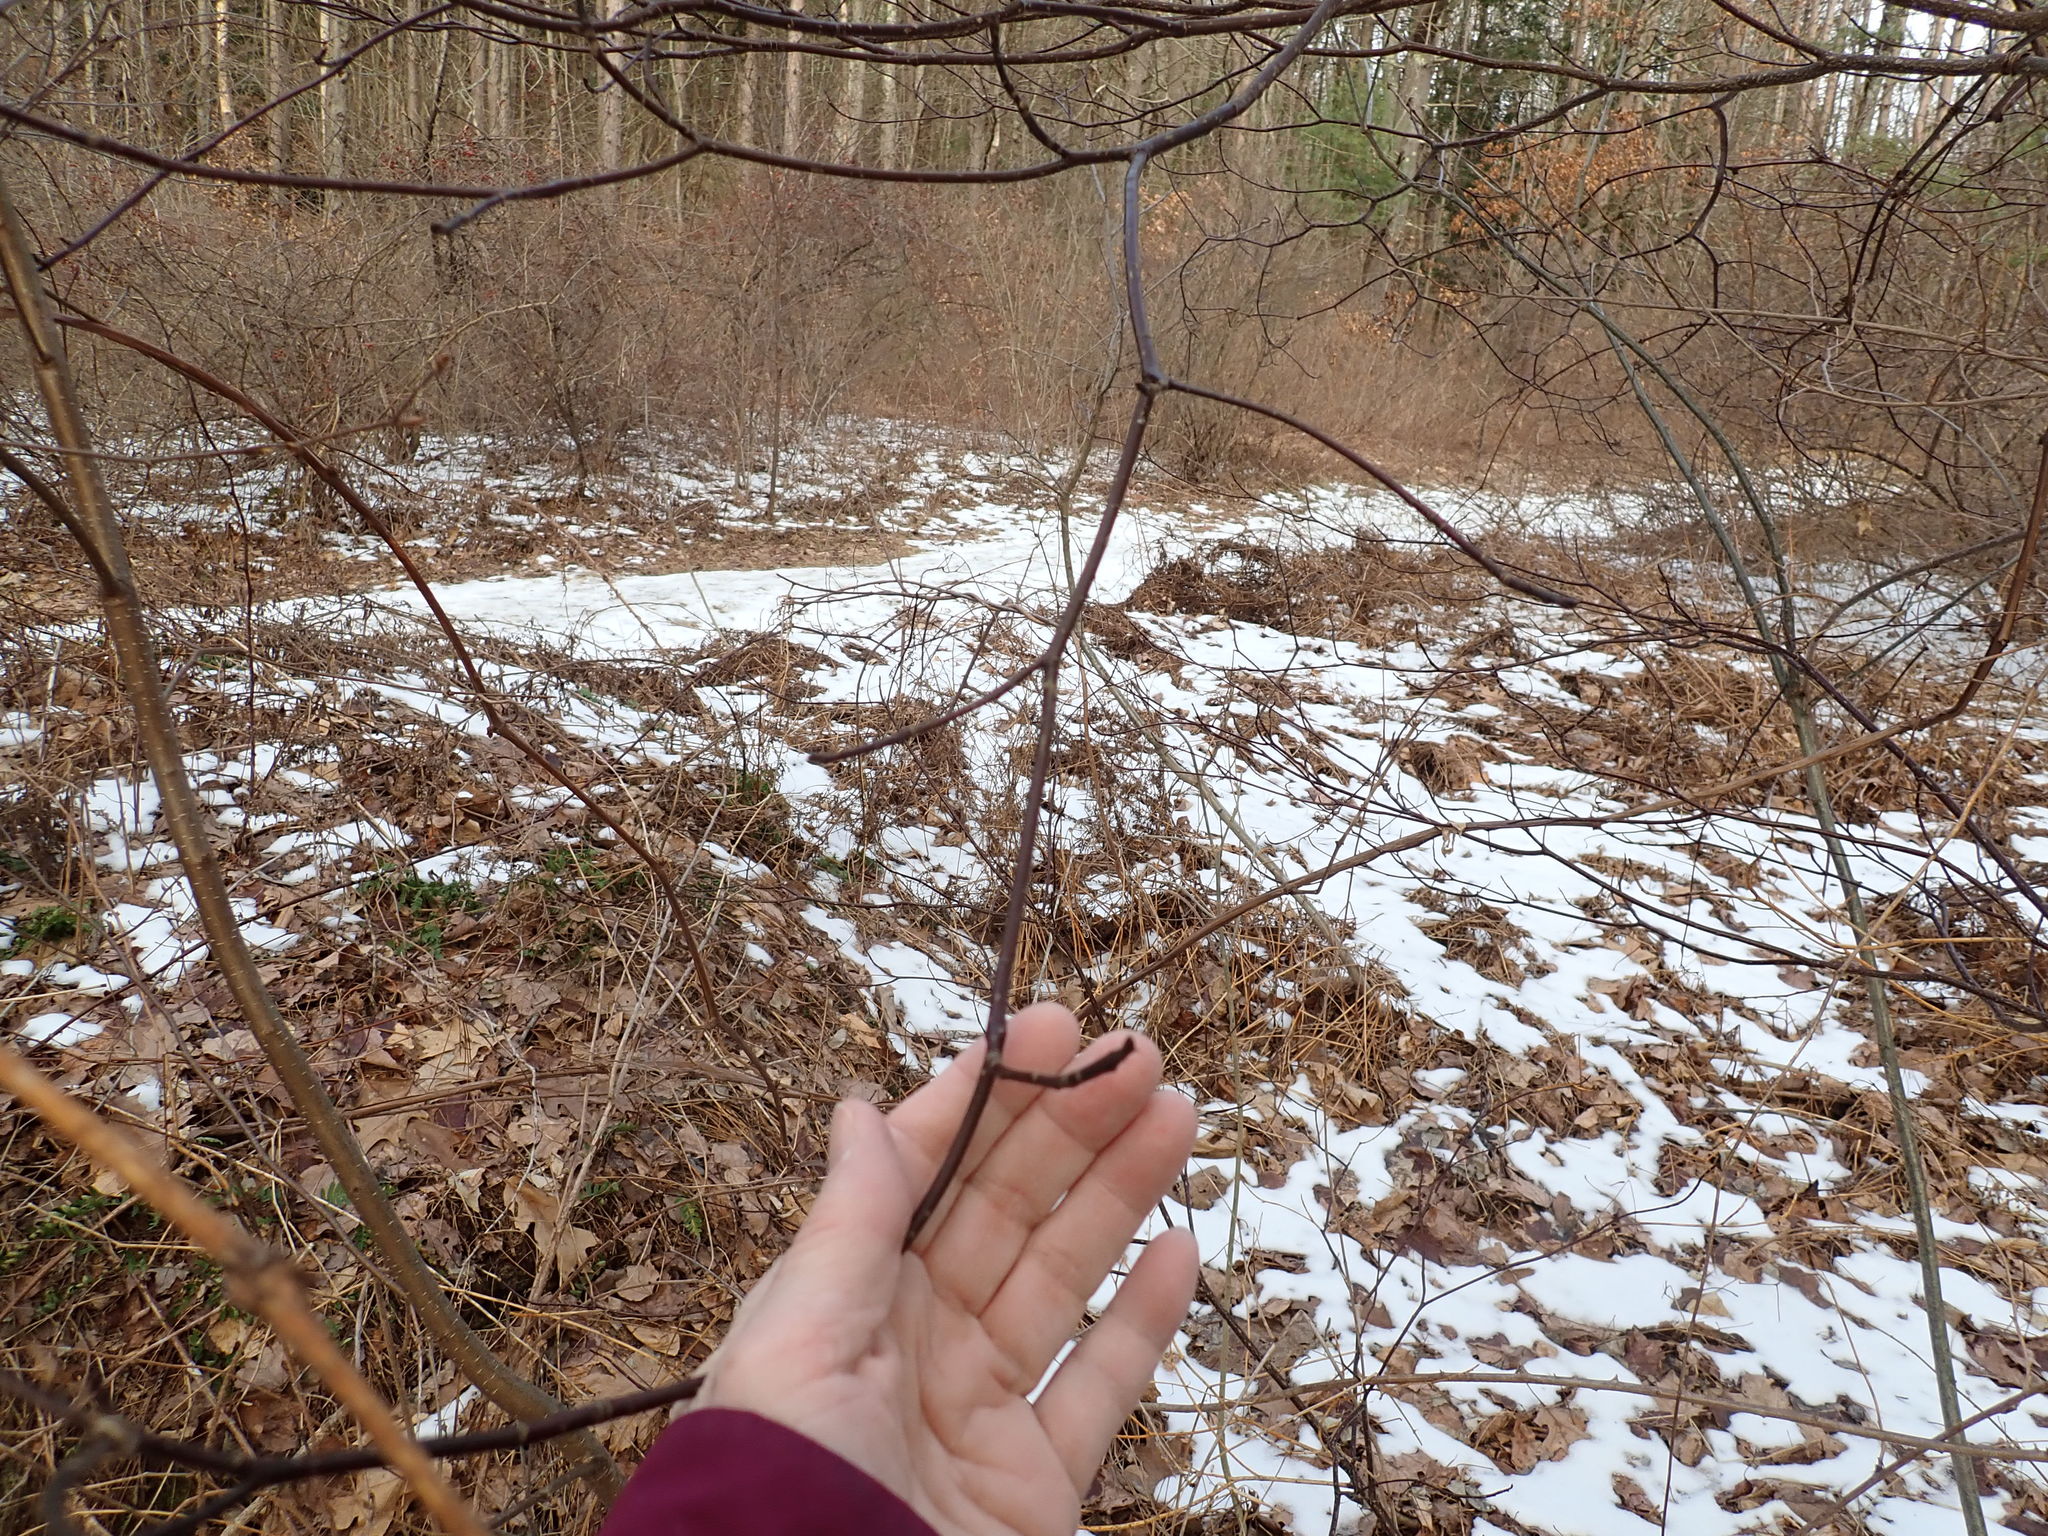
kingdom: Plantae
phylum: Tracheophyta
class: Magnoliopsida
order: Cornales
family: Cornaceae
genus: Cornus
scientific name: Cornus alternifolia
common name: Pagoda dogwood
